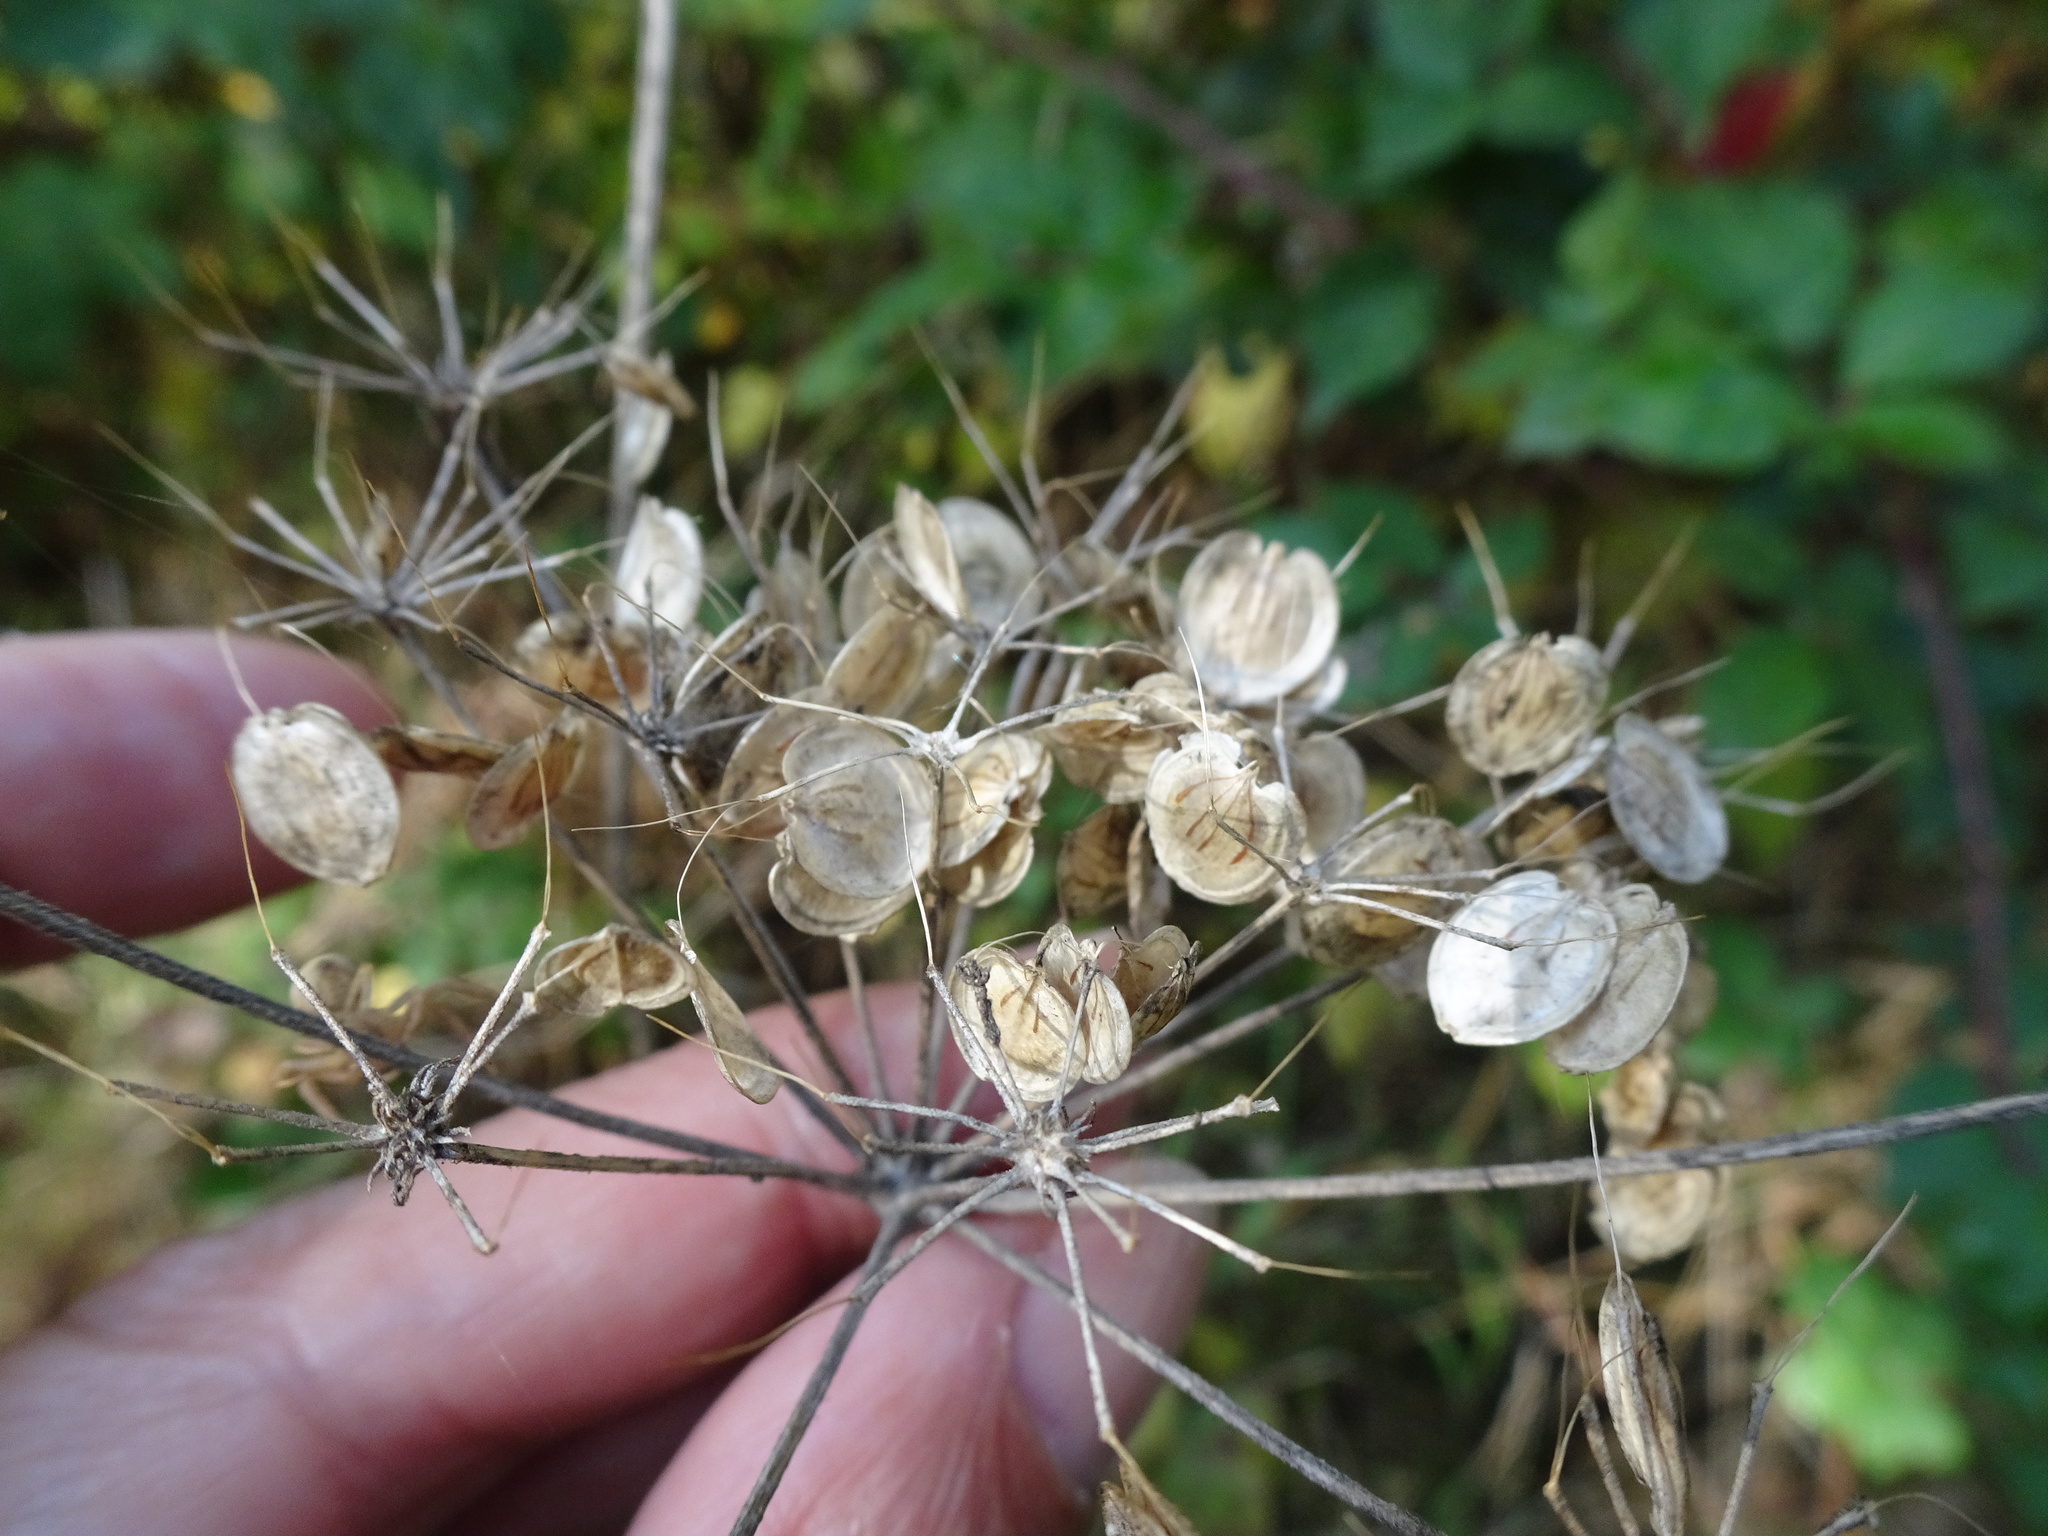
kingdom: Plantae
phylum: Tracheophyta
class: Magnoliopsida
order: Apiales
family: Apiaceae
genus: Heracleum
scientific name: Heracleum sphondylium
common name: Hogweed
